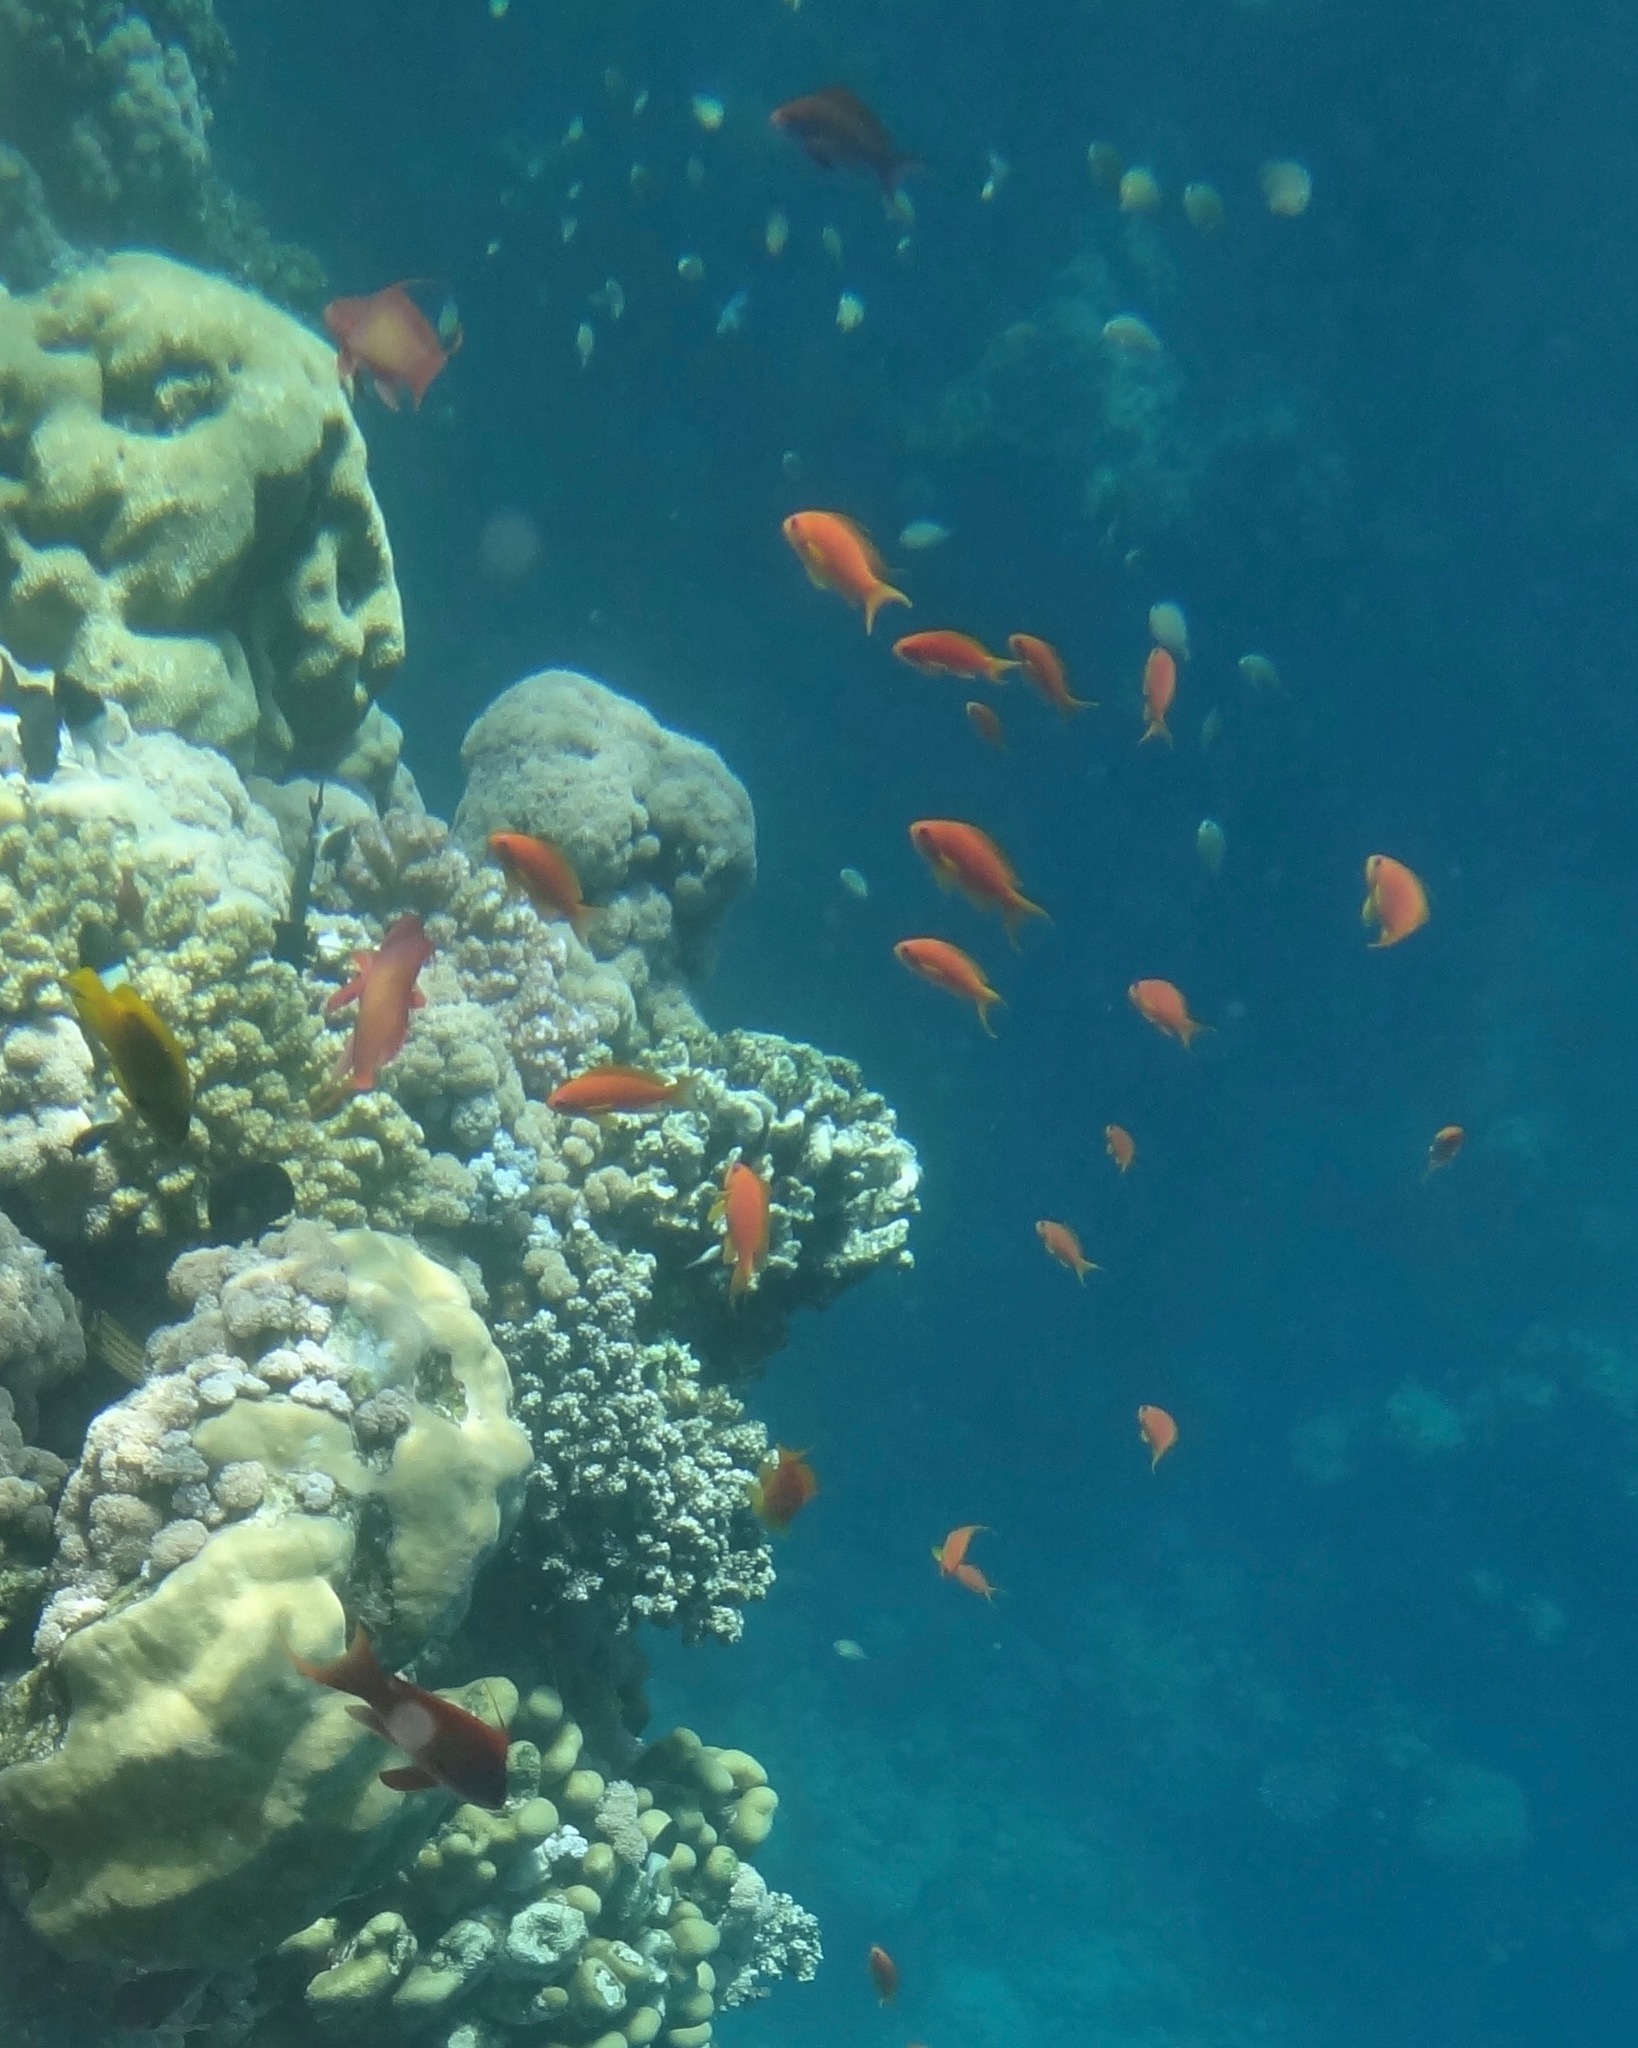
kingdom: Animalia
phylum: Chordata
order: Perciformes
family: Serranidae
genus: Pseudanthias
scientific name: Pseudanthias squamipinnis
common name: Scalefin anthias
